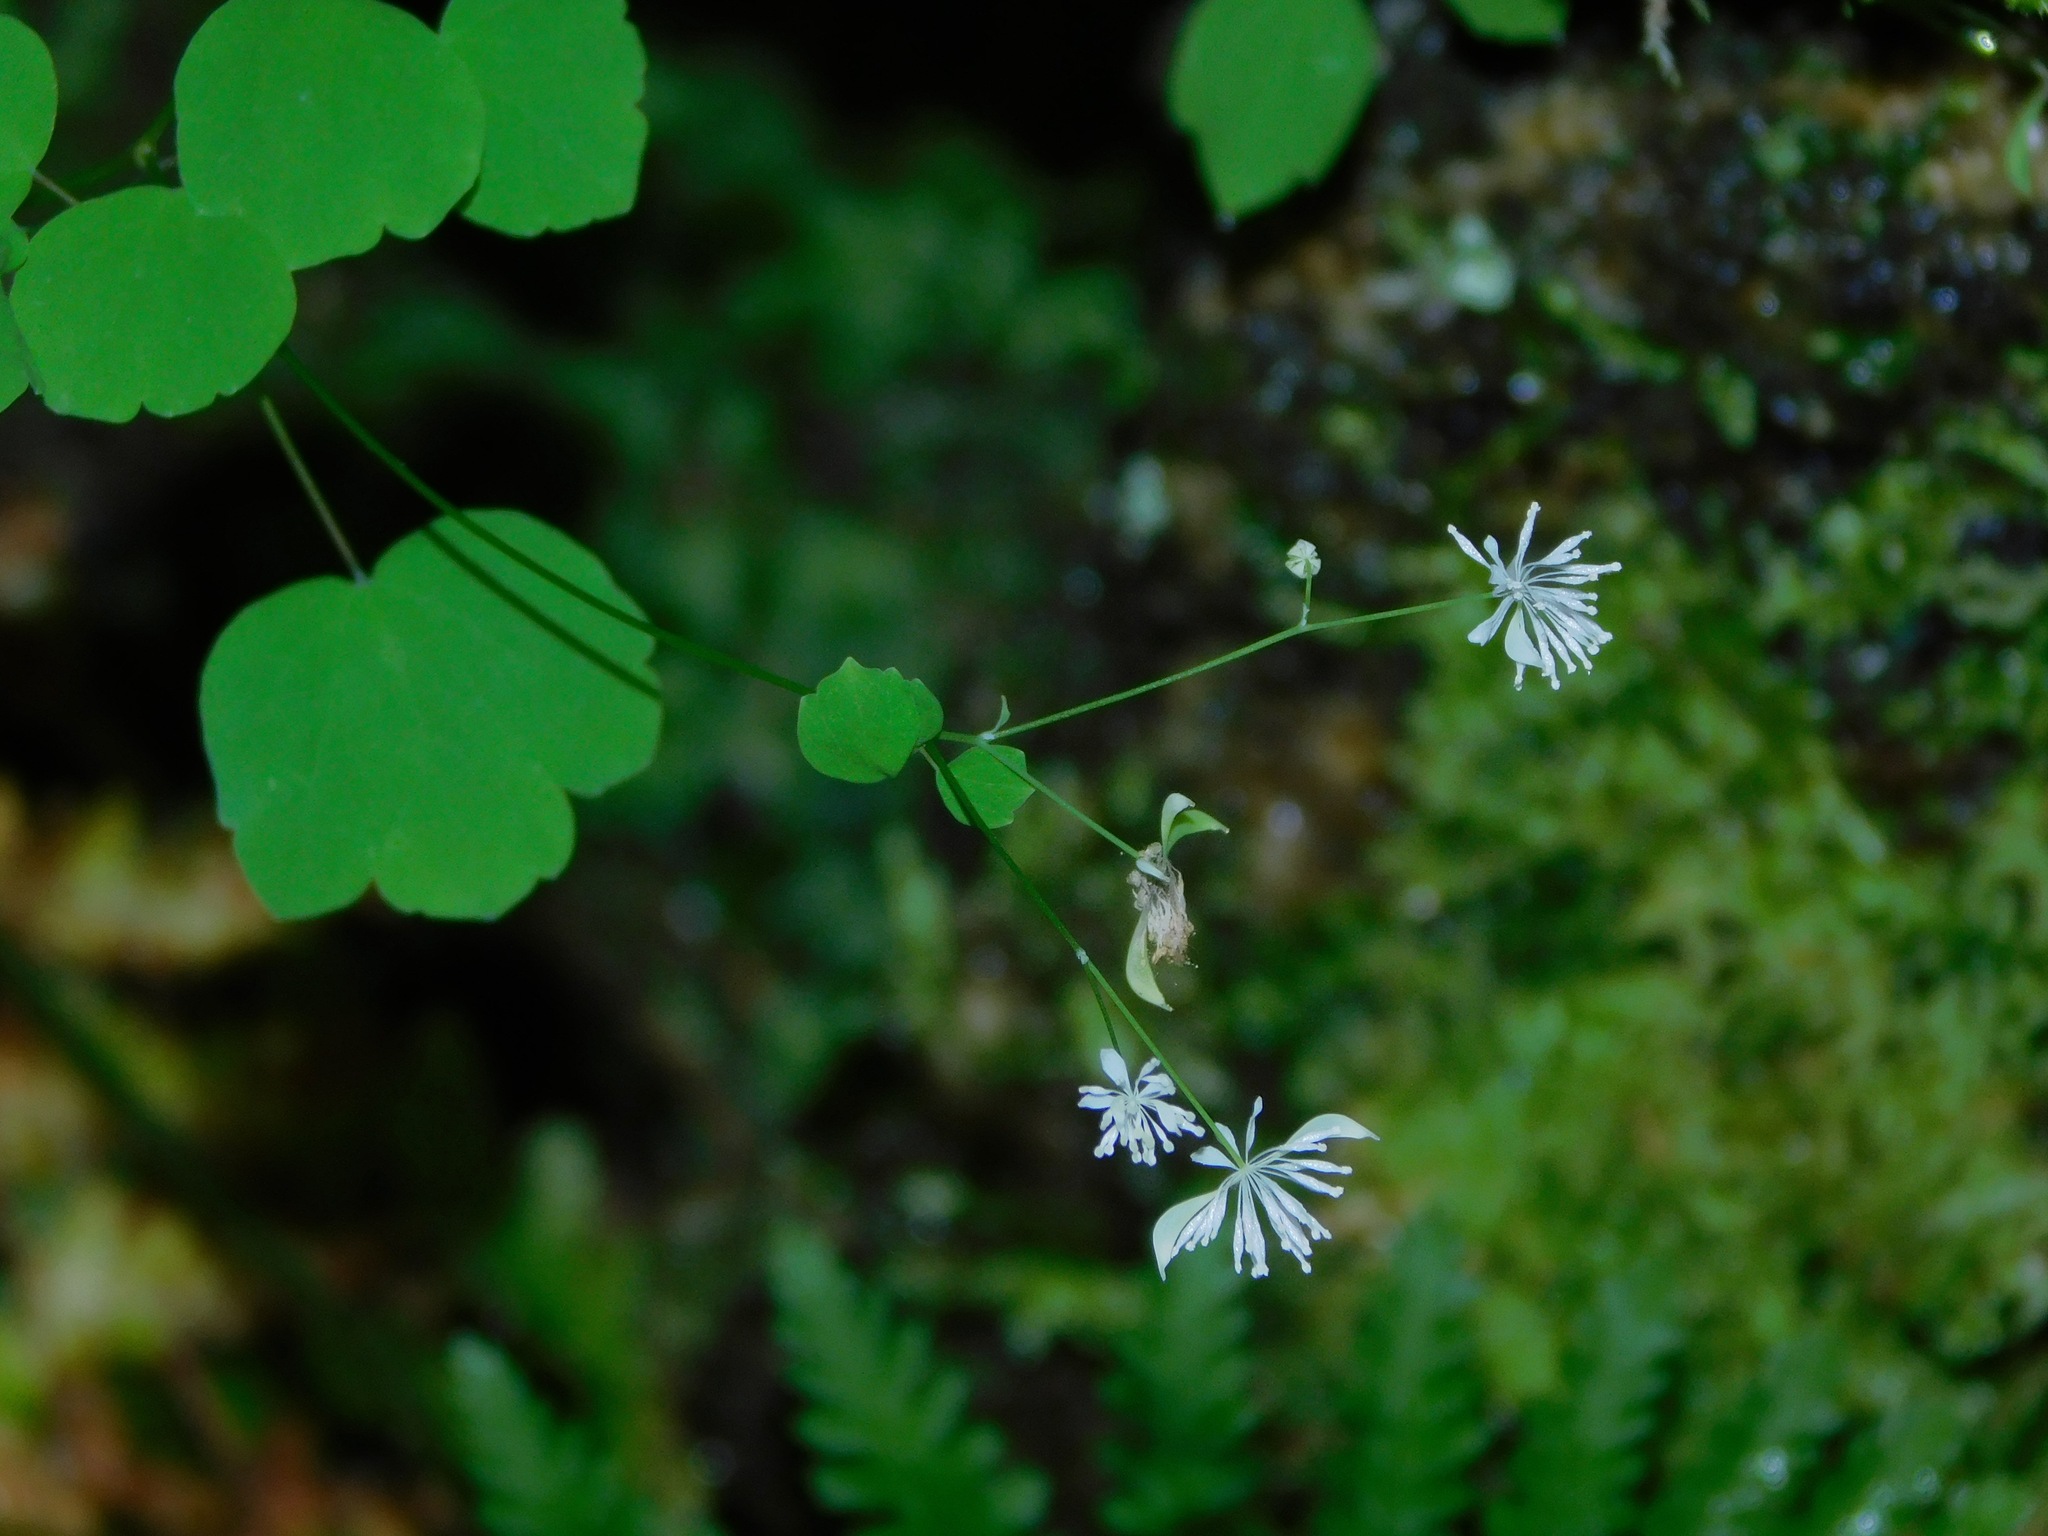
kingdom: Plantae
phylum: Tracheophyta
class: Magnoliopsida
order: Ranunculales
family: Ranunculaceae
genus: Thalictrum
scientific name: Thalictrum clavatum
